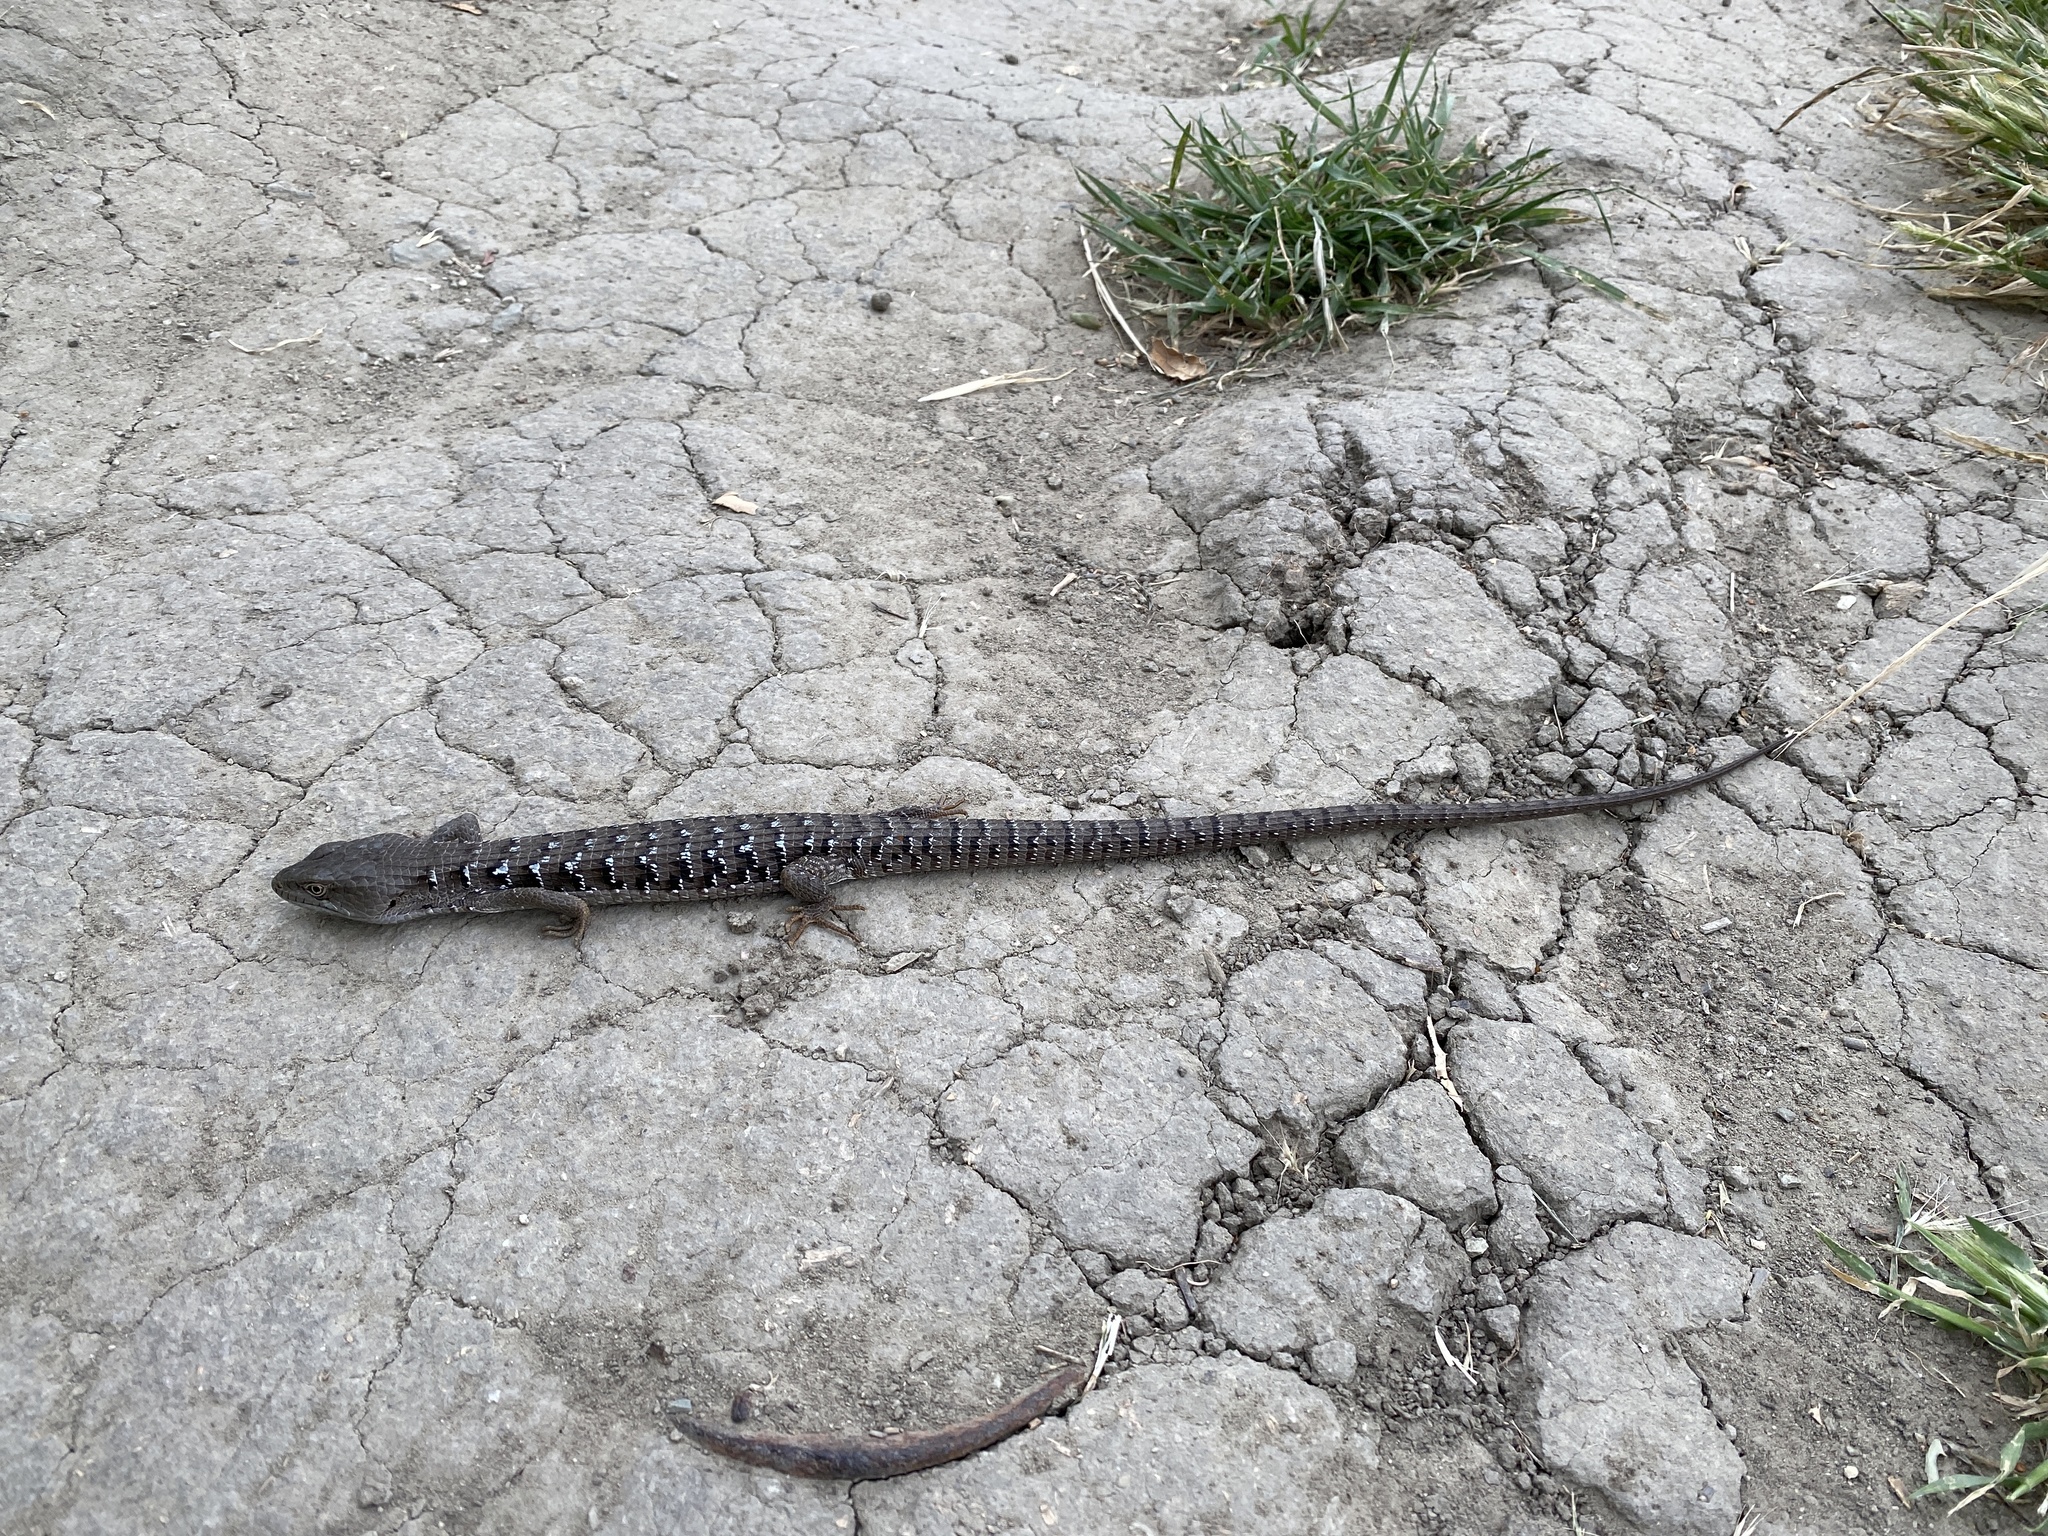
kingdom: Animalia
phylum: Chordata
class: Squamata
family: Anguidae
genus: Elgaria
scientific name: Elgaria multicarinata
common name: Southern alligator lizard
